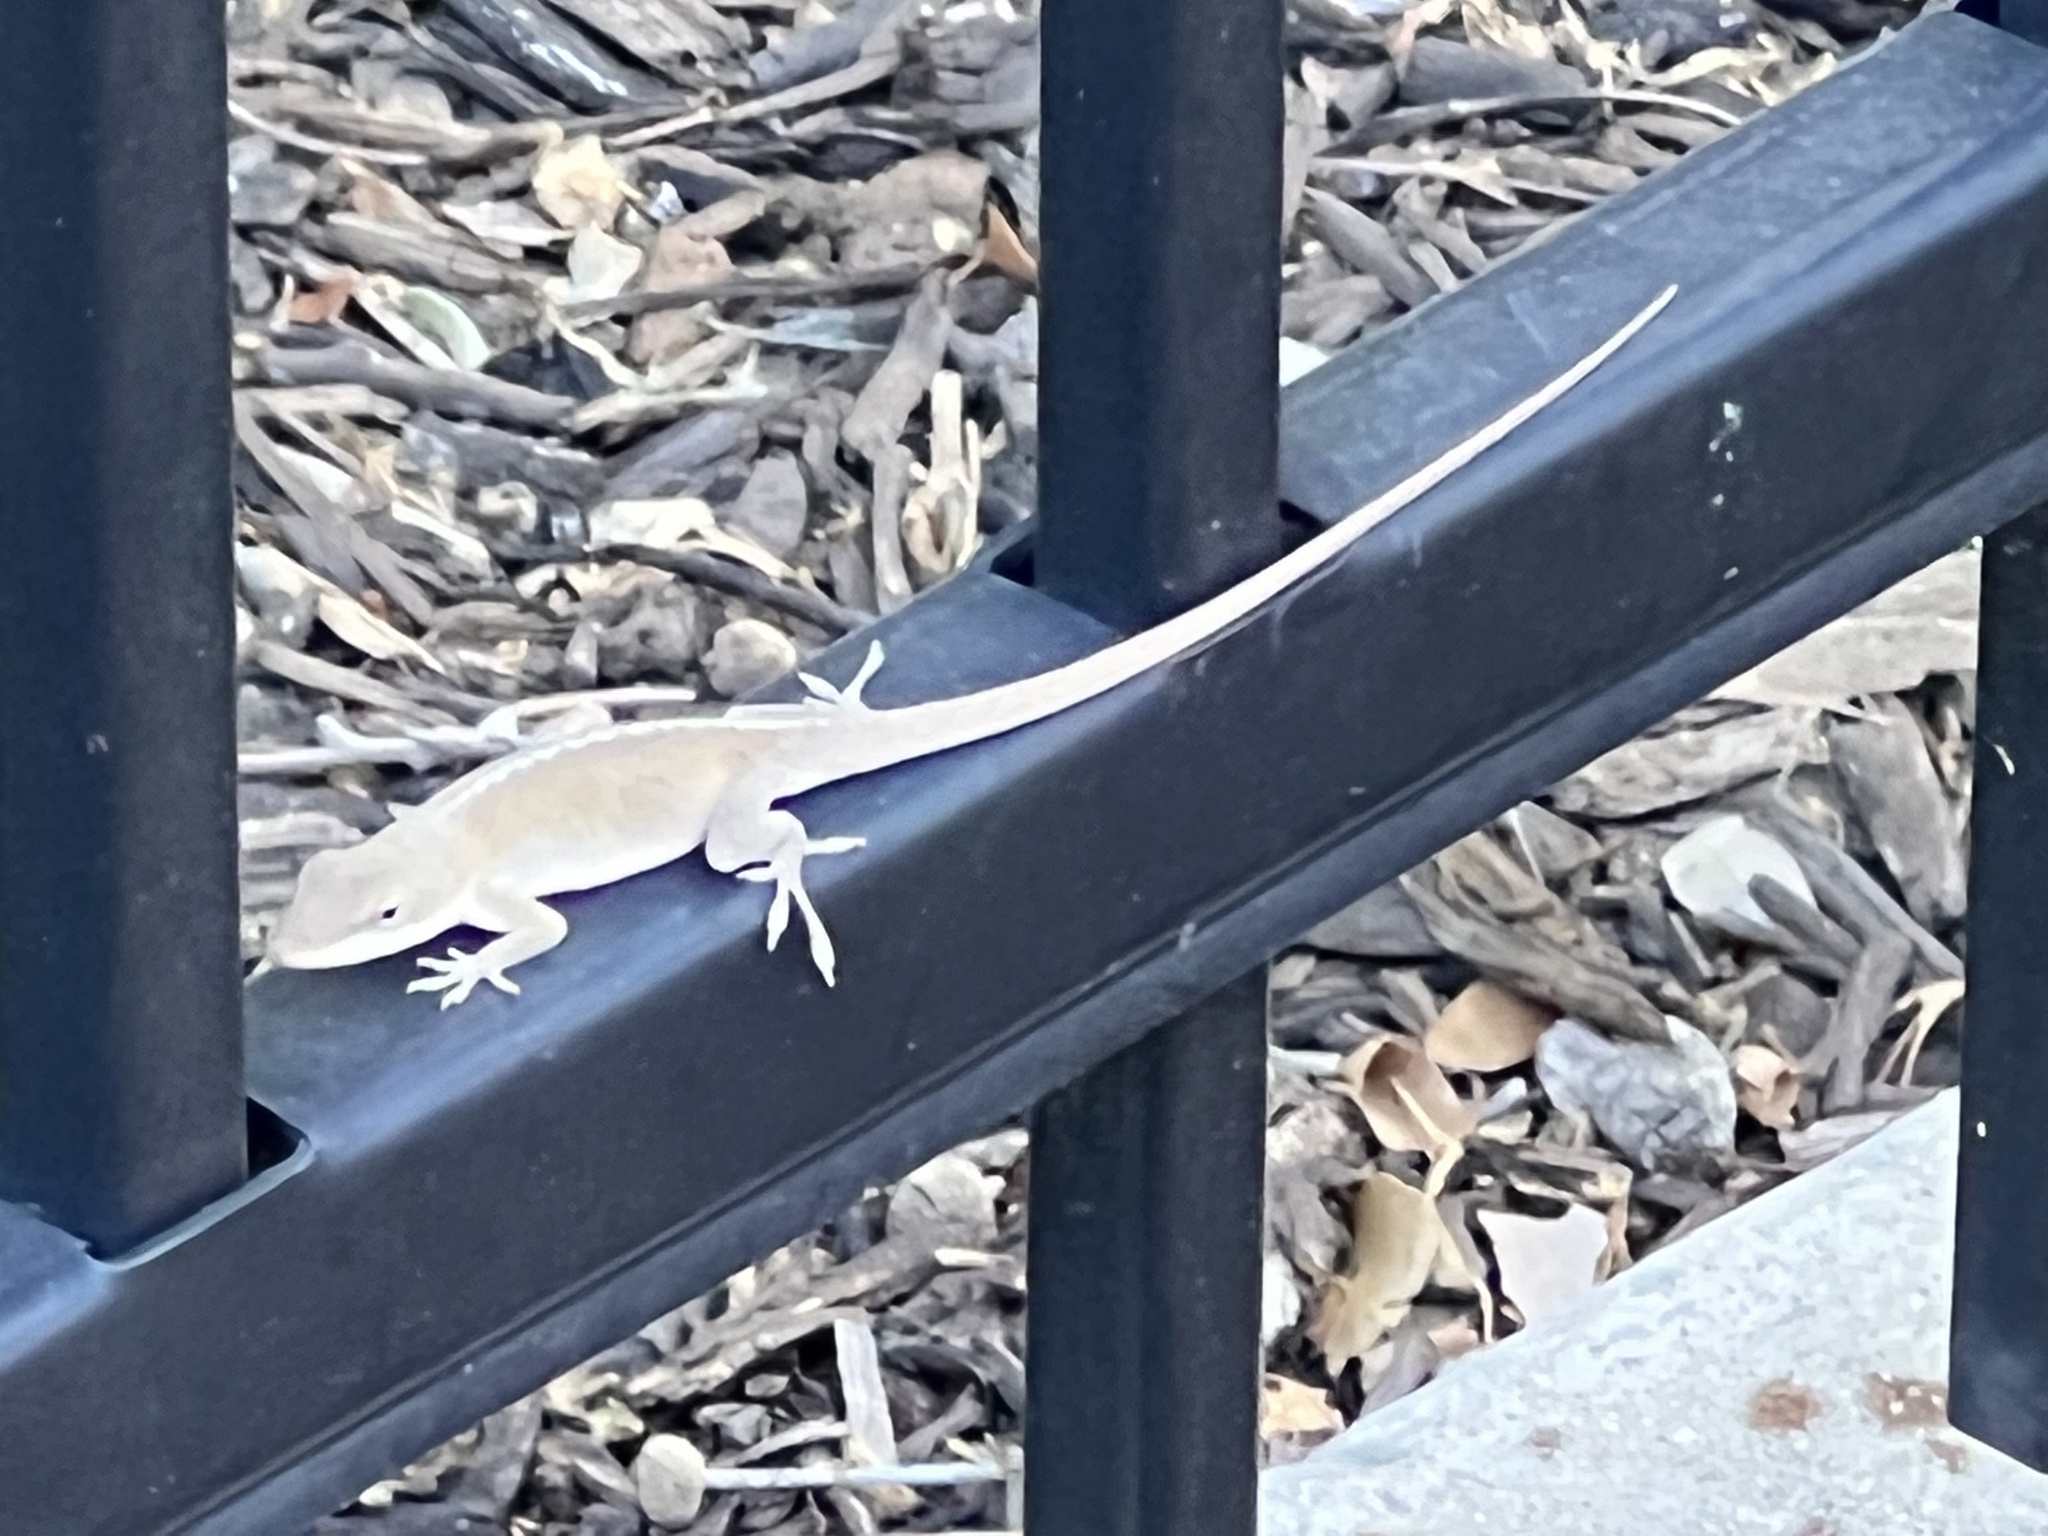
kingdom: Animalia
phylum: Chordata
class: Squamata
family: Dactyloidae
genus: Anolis
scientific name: Anolis carolinensis
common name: Green anole
